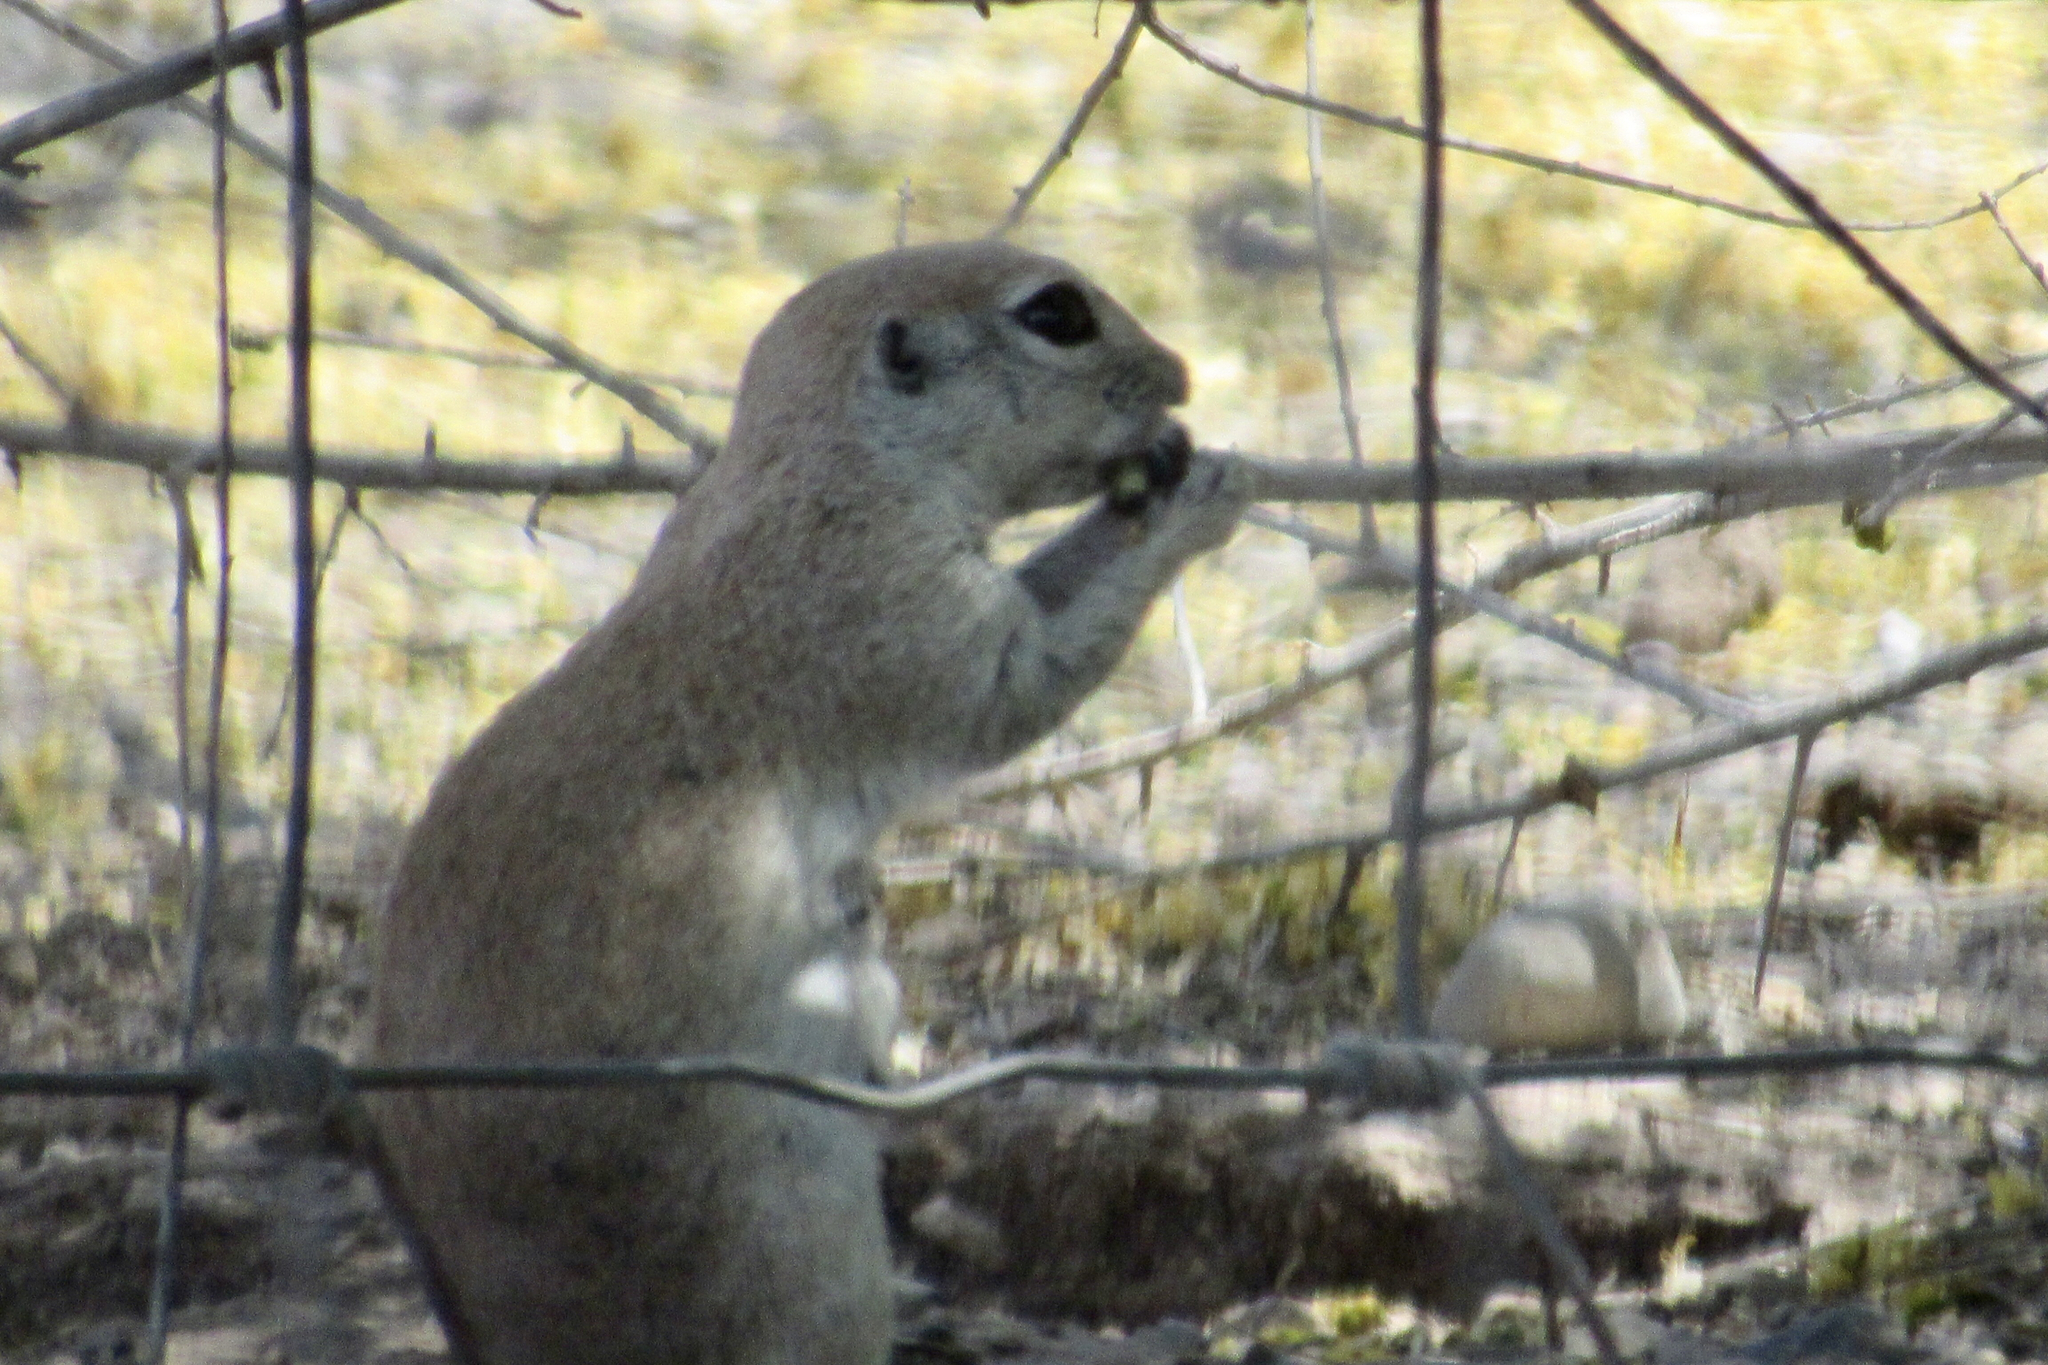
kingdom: Animalia
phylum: Chordata
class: Mammalia
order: Rodentia
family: Sciuridae
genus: Xerospermophilus
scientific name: Xerospermophilus tereticaudus
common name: Round-tailed ground squirrel
